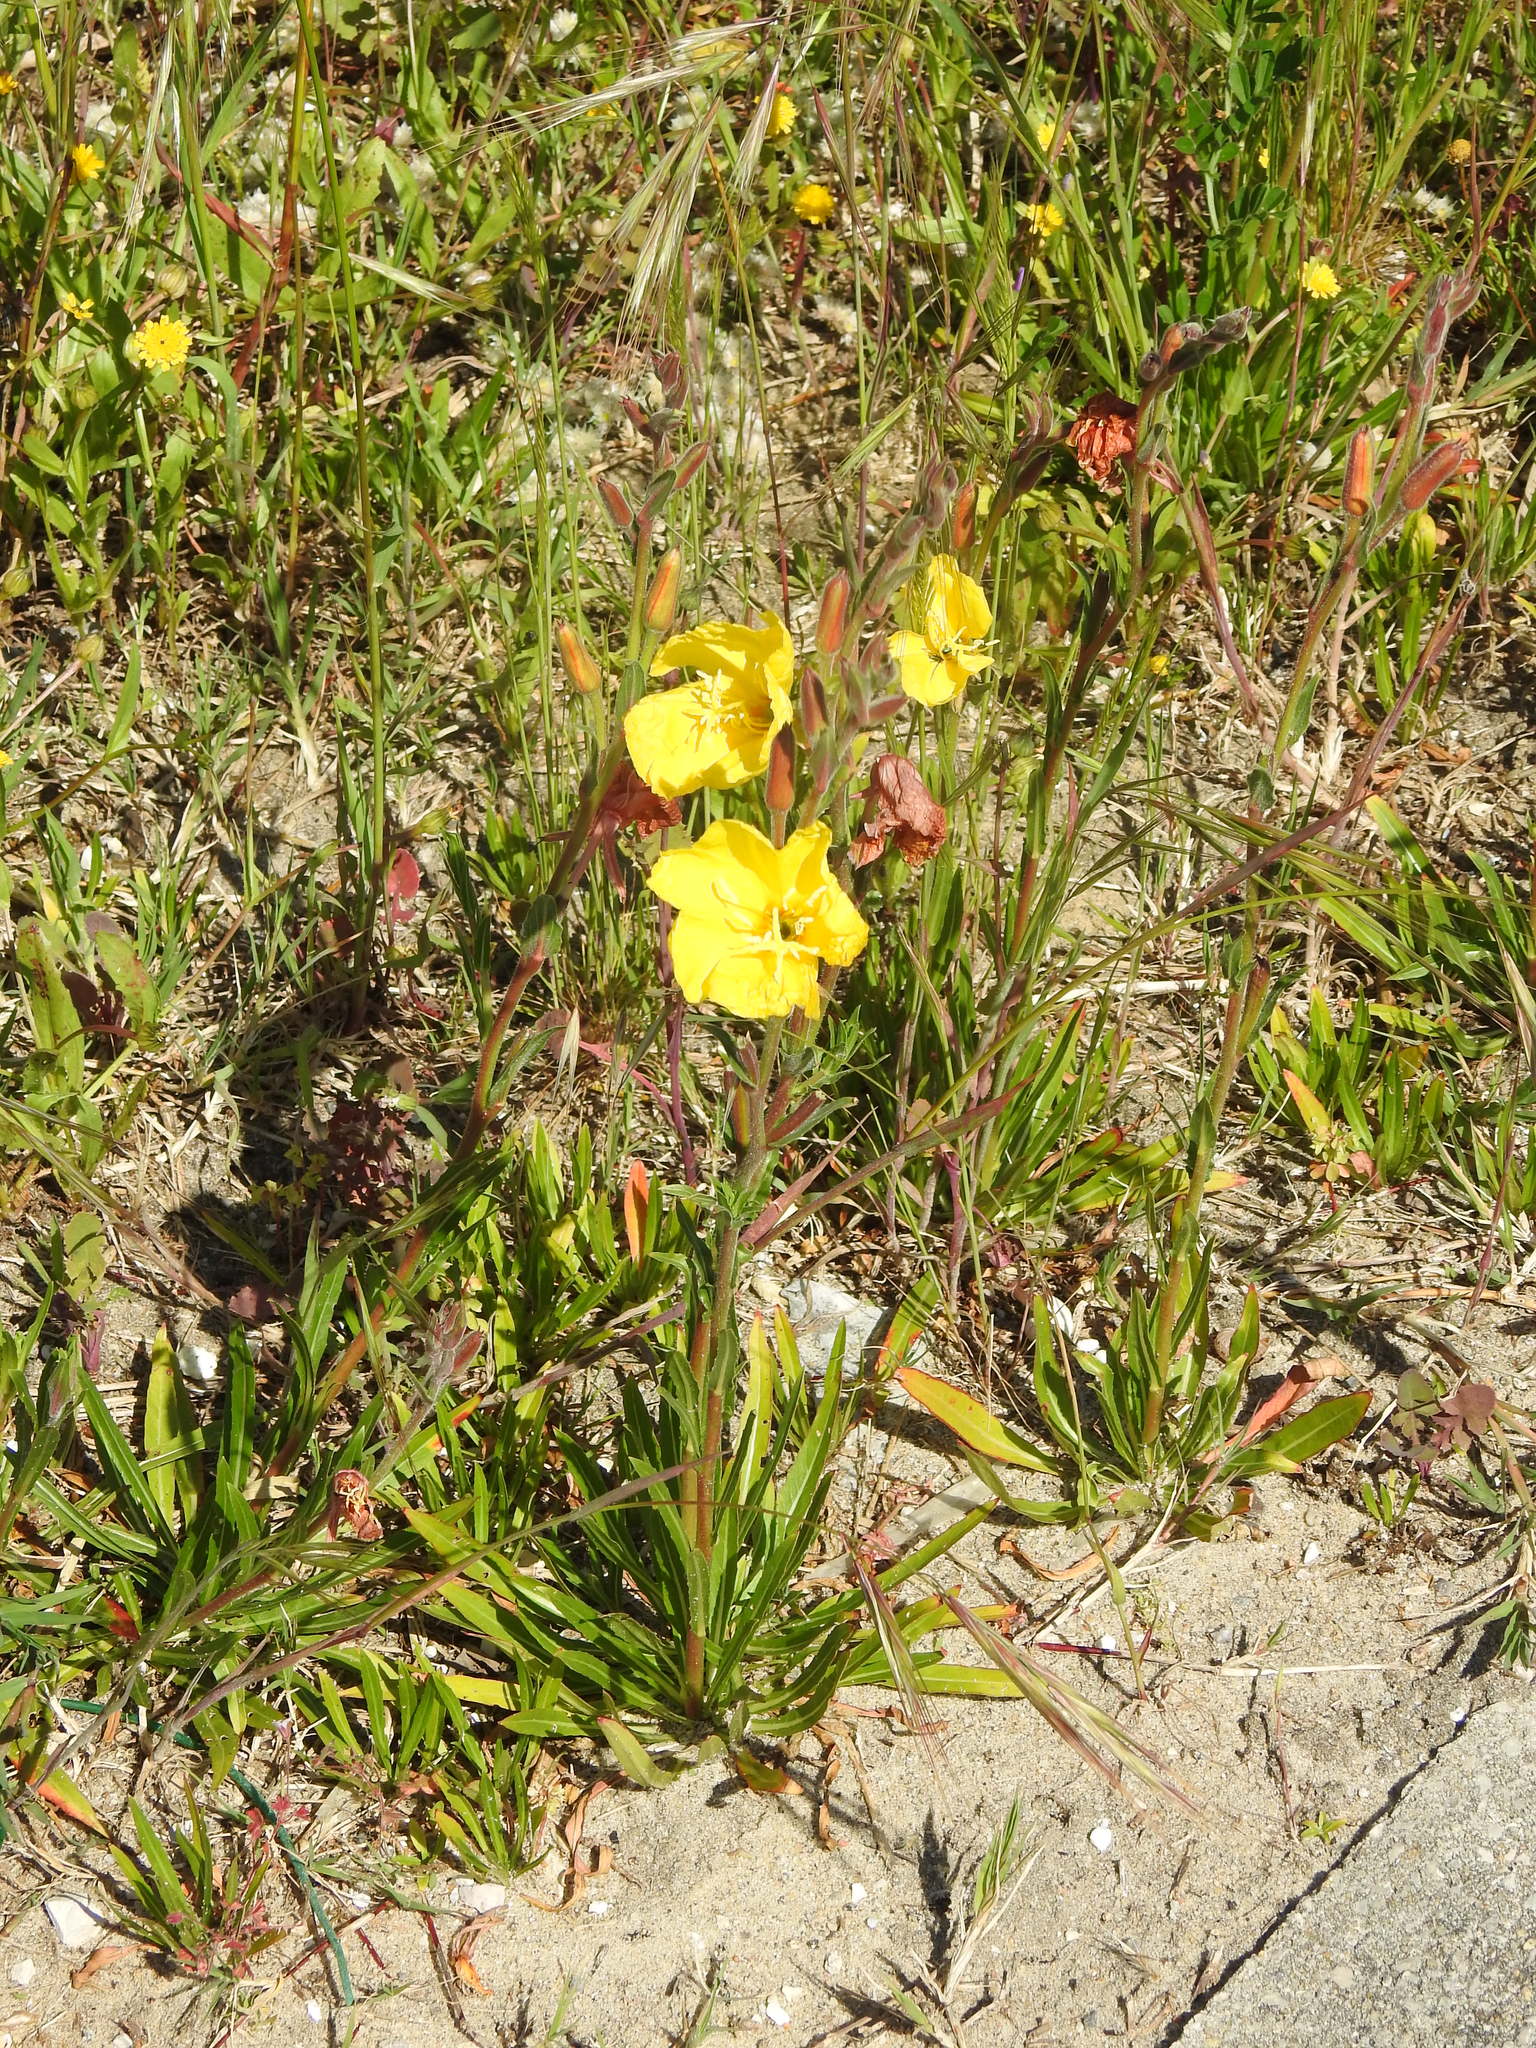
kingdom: Plantae
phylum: Tracheophyta
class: Magnoliopsida
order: Myrtales
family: Onagraceae
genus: Oenothera
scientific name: Oenothera stricta
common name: Fragrant evening-primrose
